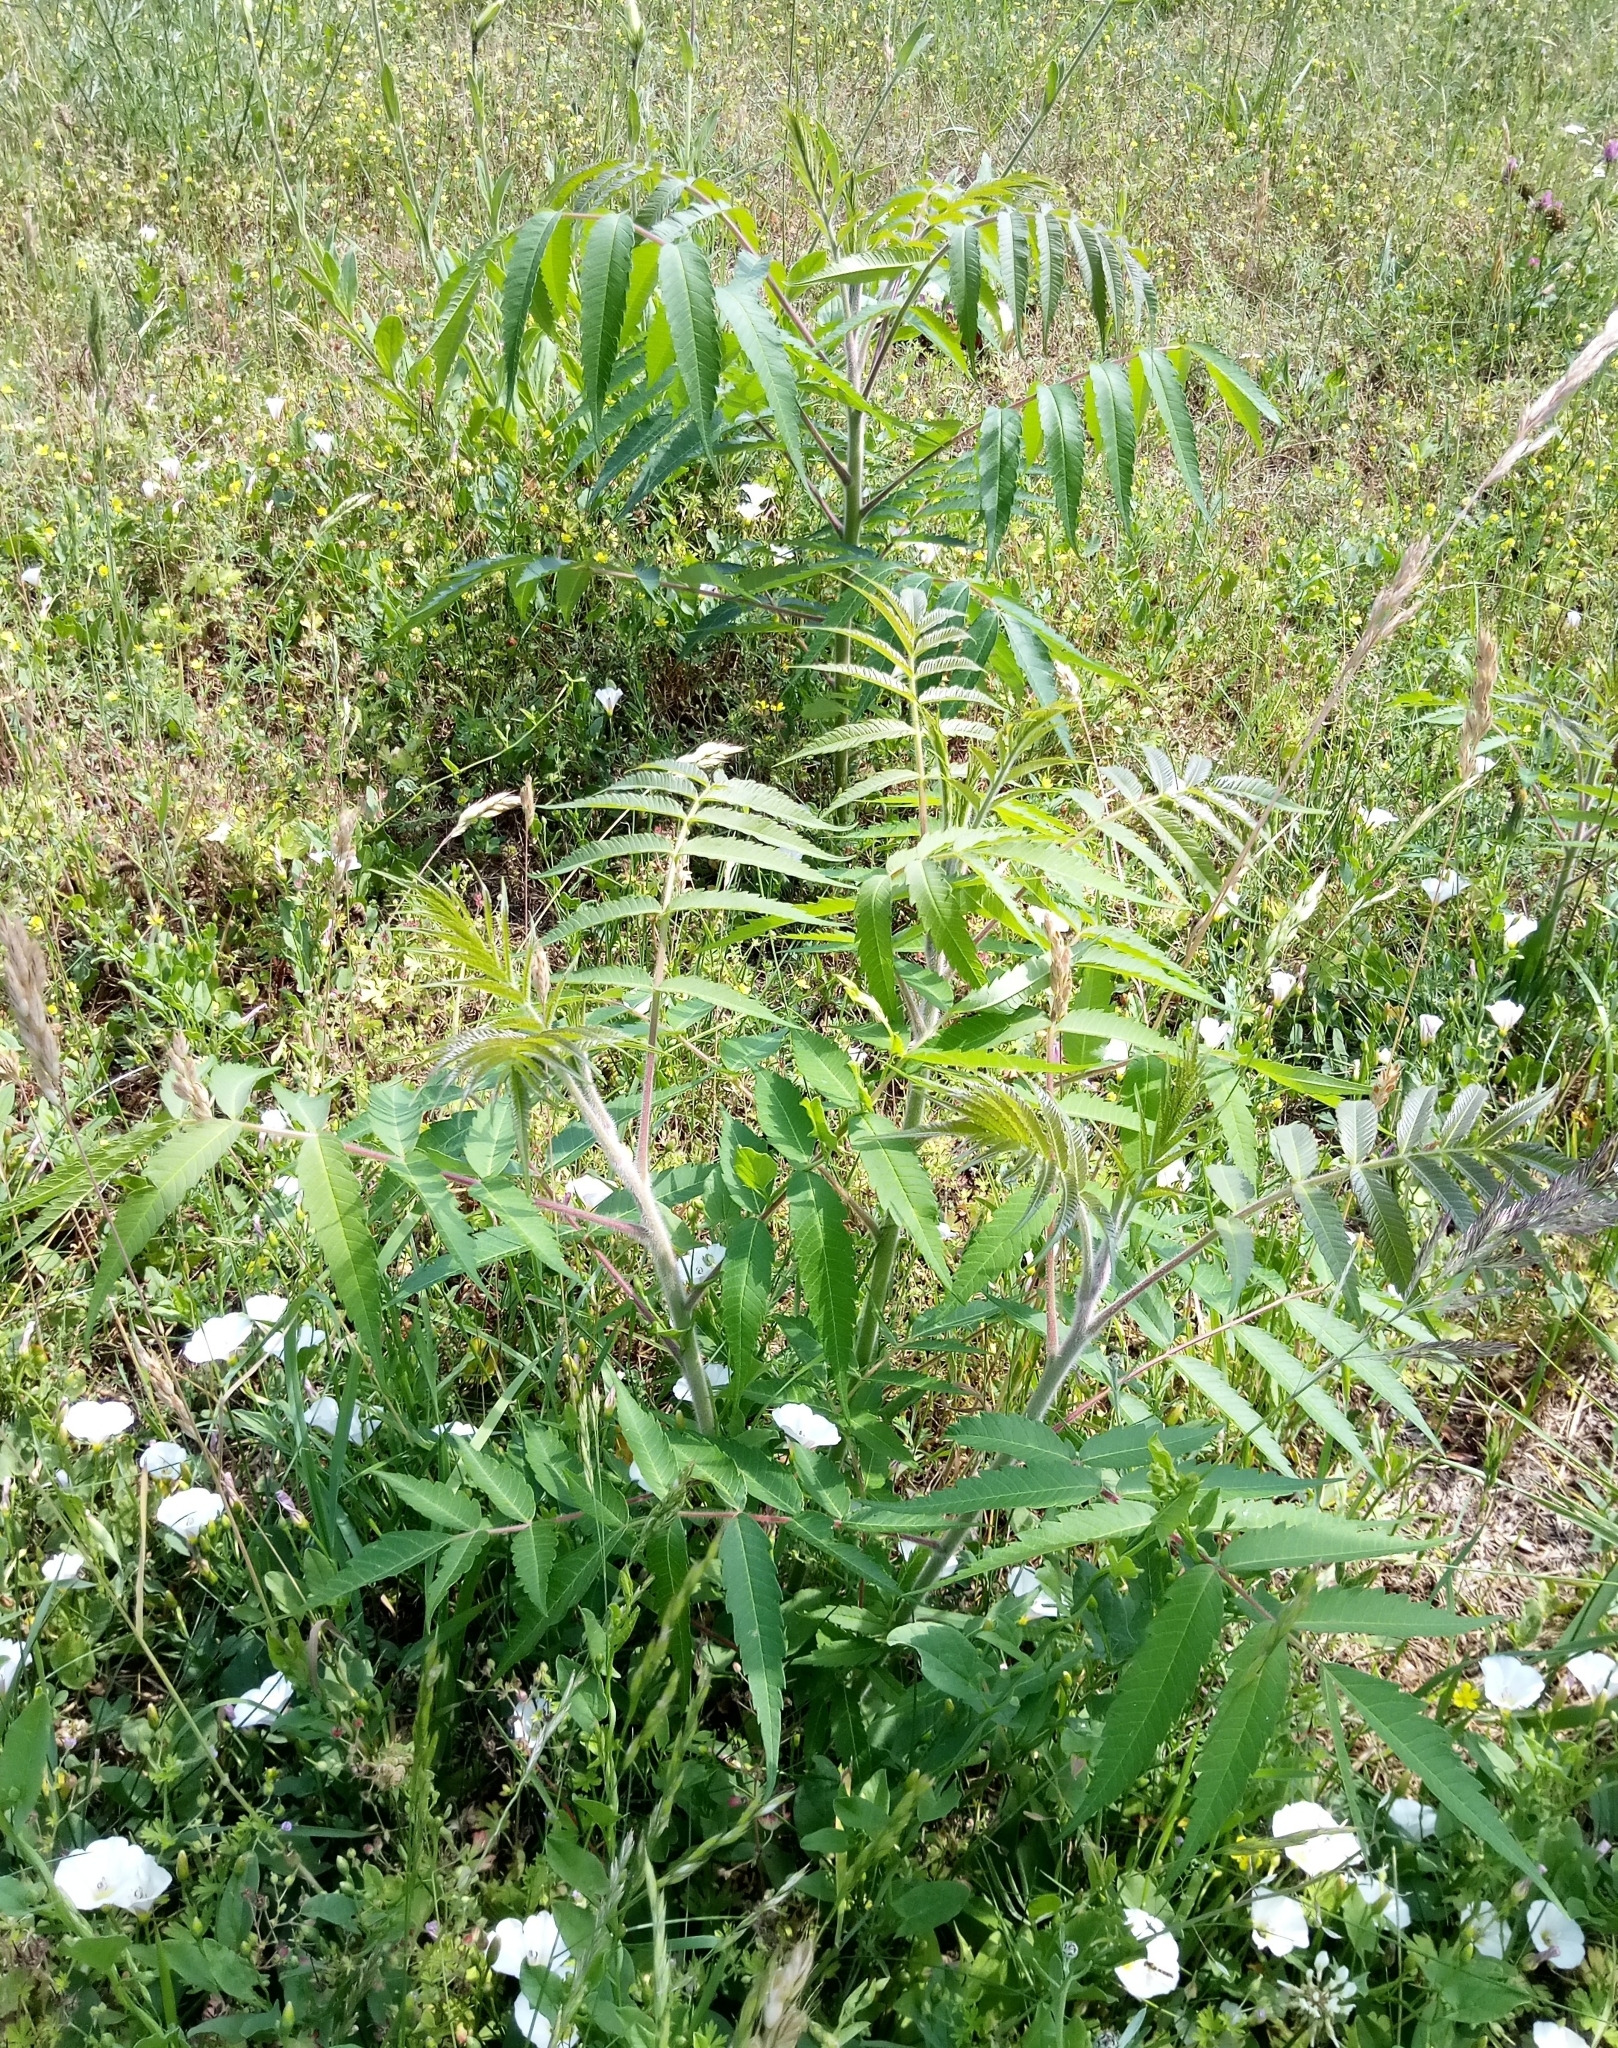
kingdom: Plantae
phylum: Tracheophyta
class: Magnoliopsida
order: Sapindales
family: Anacardiaceae
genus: Rhus
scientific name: Rhus typhina
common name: Staghorn sumac
